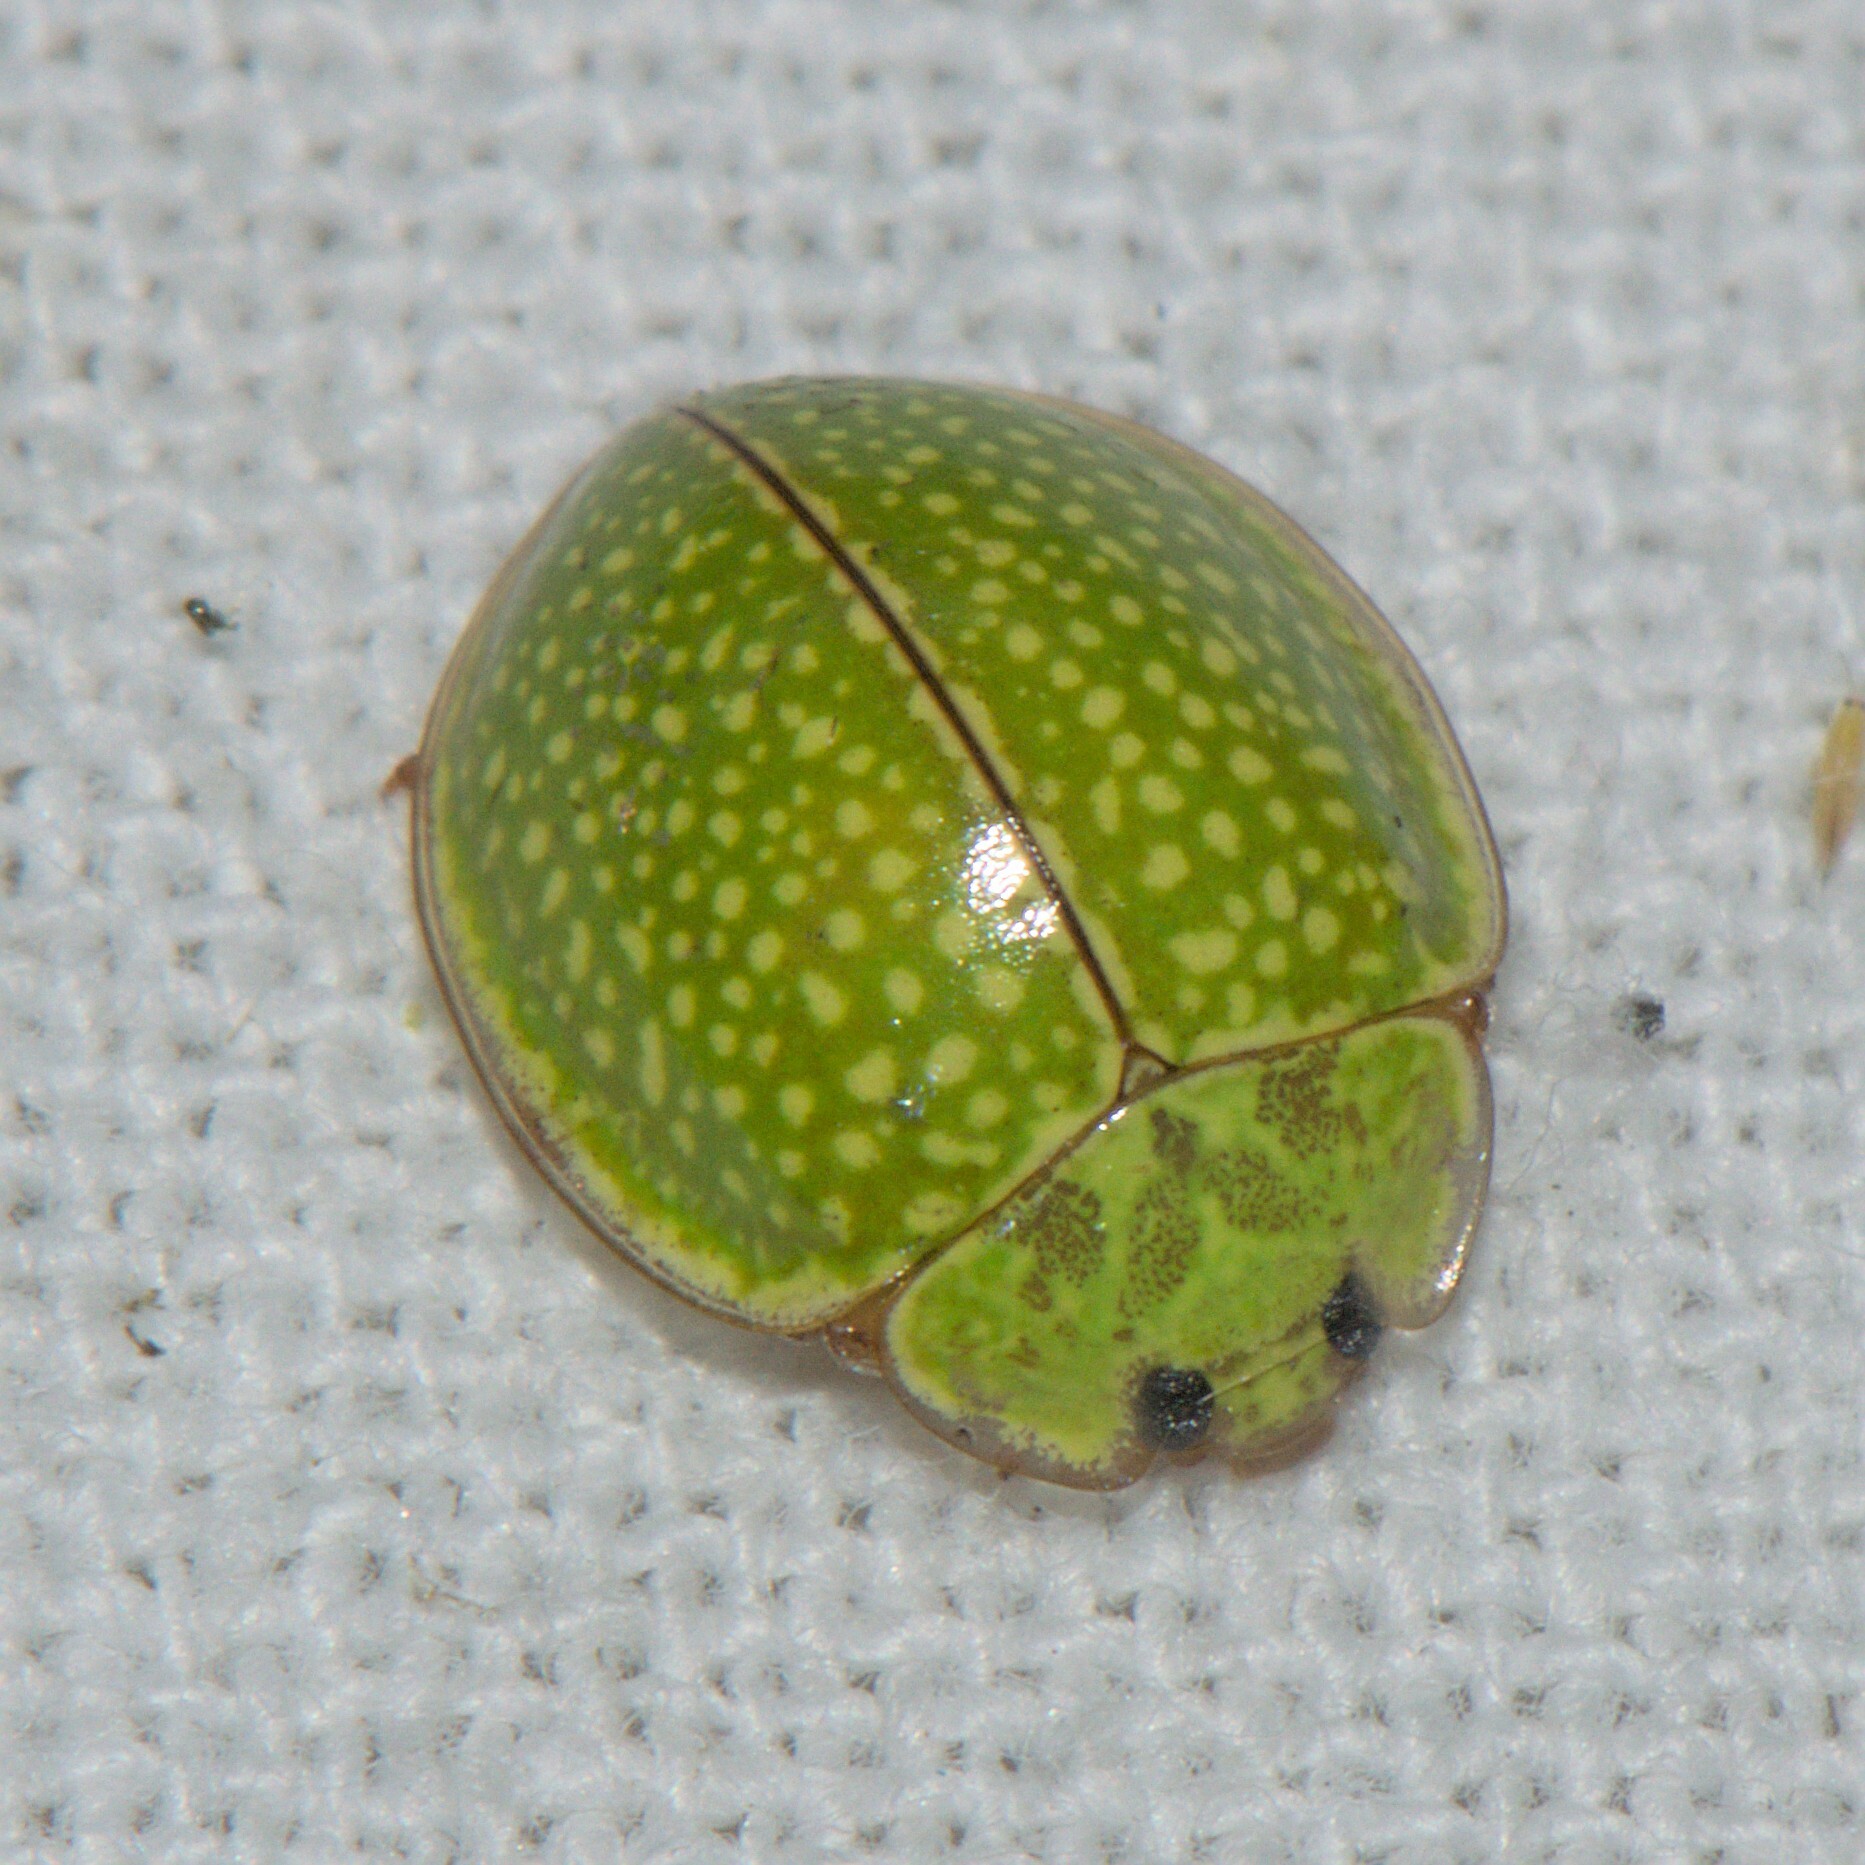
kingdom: Animalia
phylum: Arthropoda
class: Insecta
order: Coleoptera
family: Coccinellidae
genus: Calvia
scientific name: Calvia
